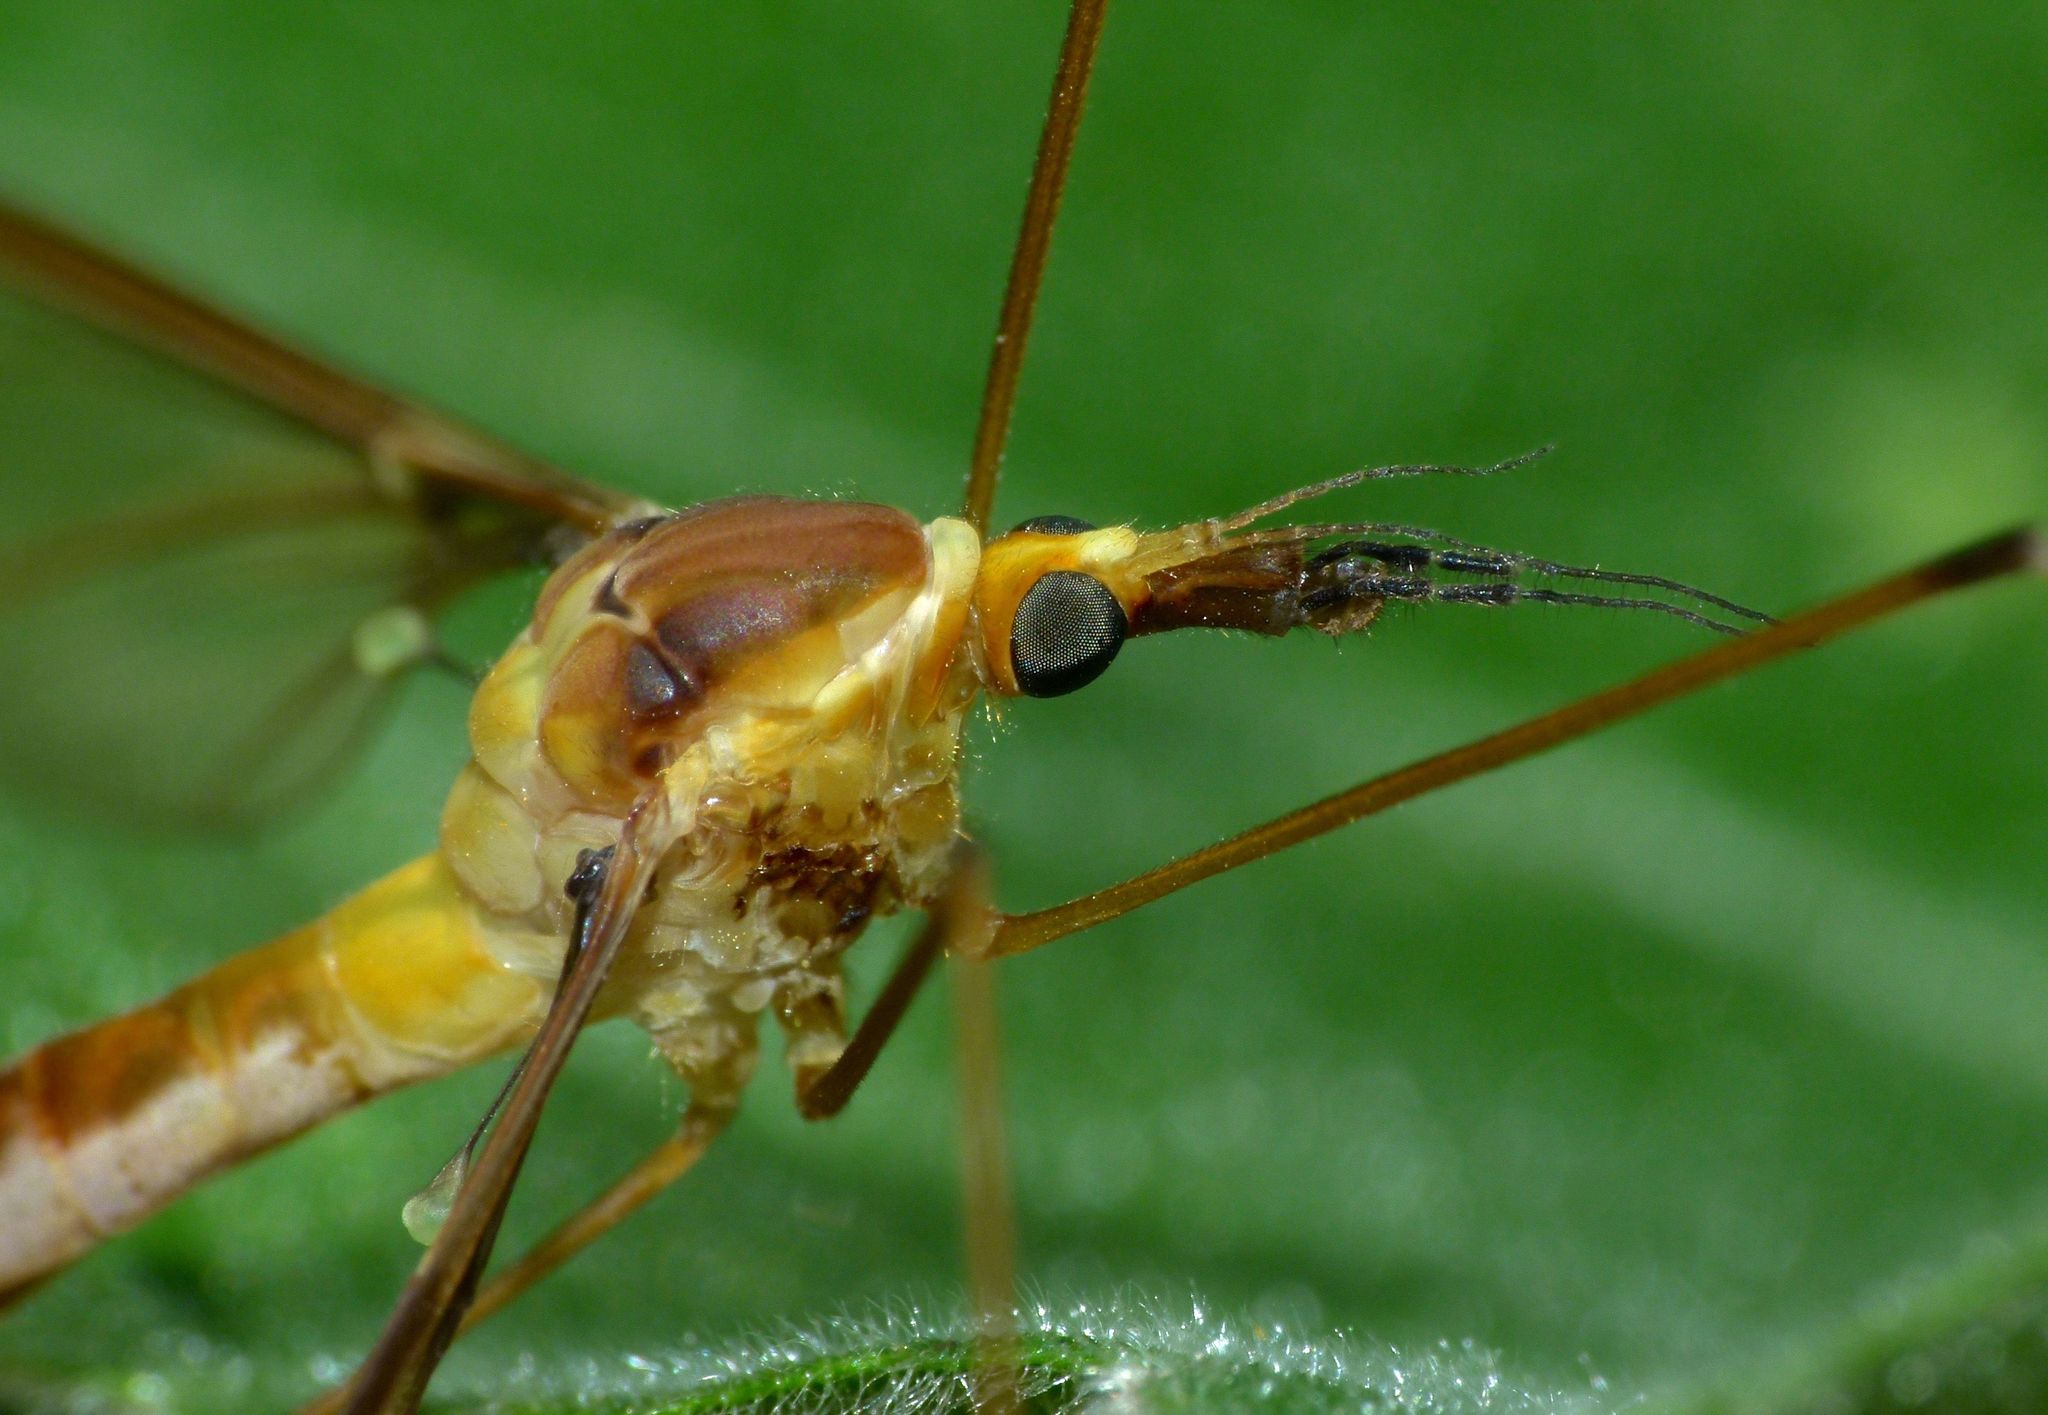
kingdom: Animalia
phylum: Arthropoda
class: Insecta
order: Diptera
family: Tipulidae
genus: Leptotarsus
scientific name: Leptotarsus albistigma
